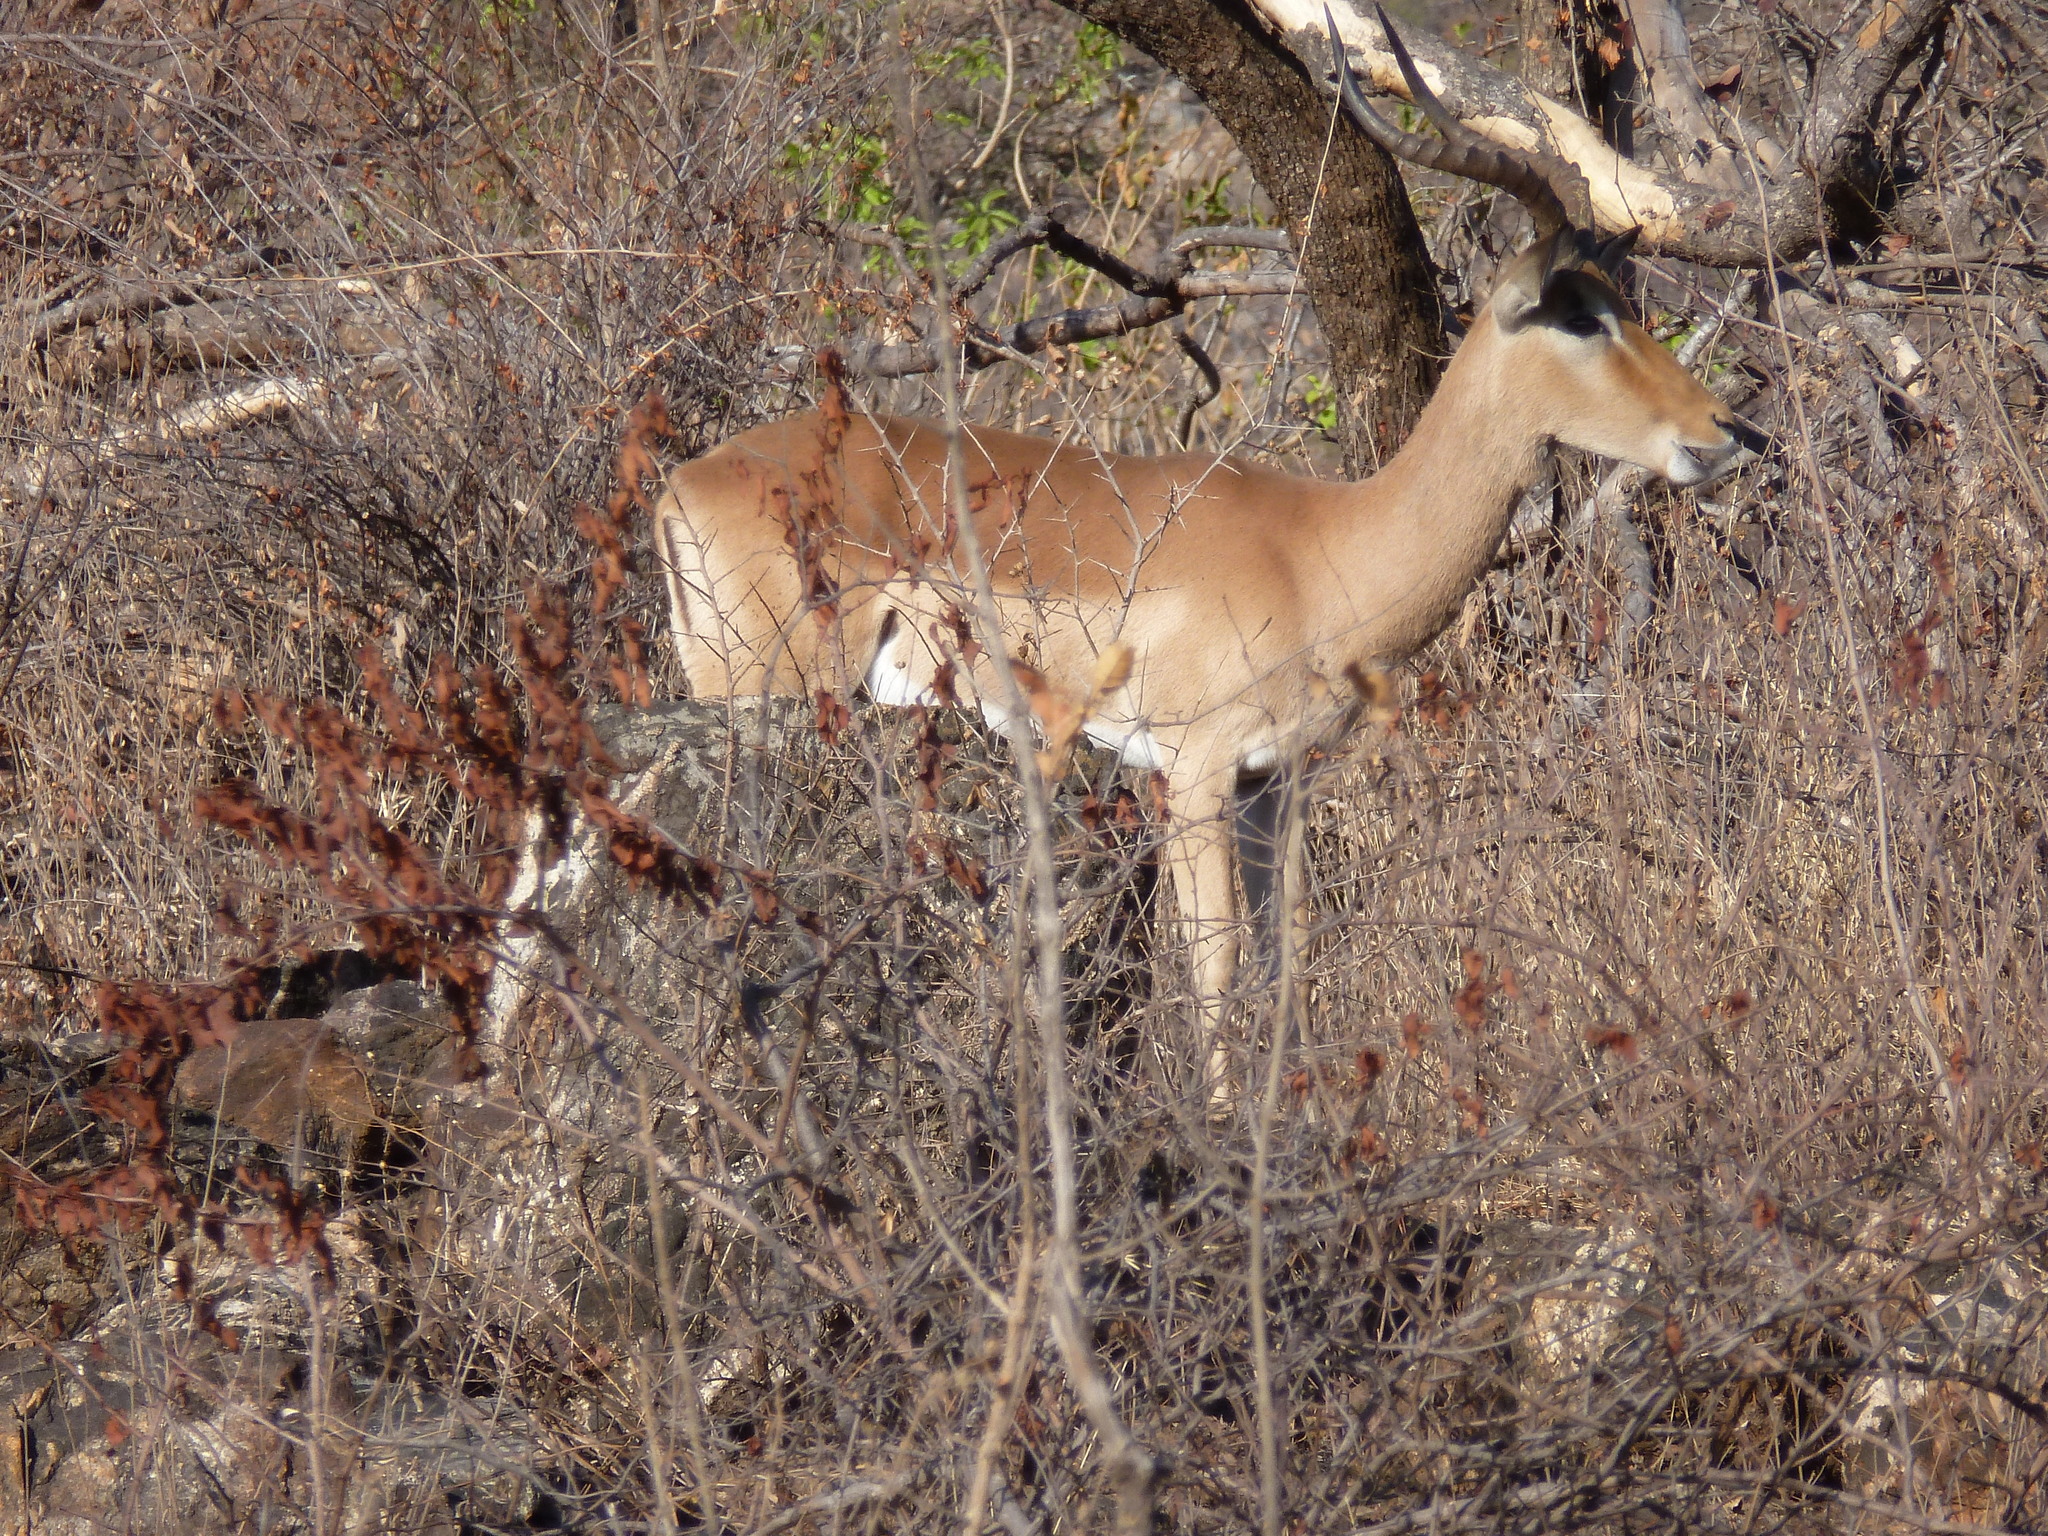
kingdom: Animalia
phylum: Chordata
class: Mammalia
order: Artiodactyla
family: Bovidae
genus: Aepyceros
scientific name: Aepyceros melampus
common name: Impala
